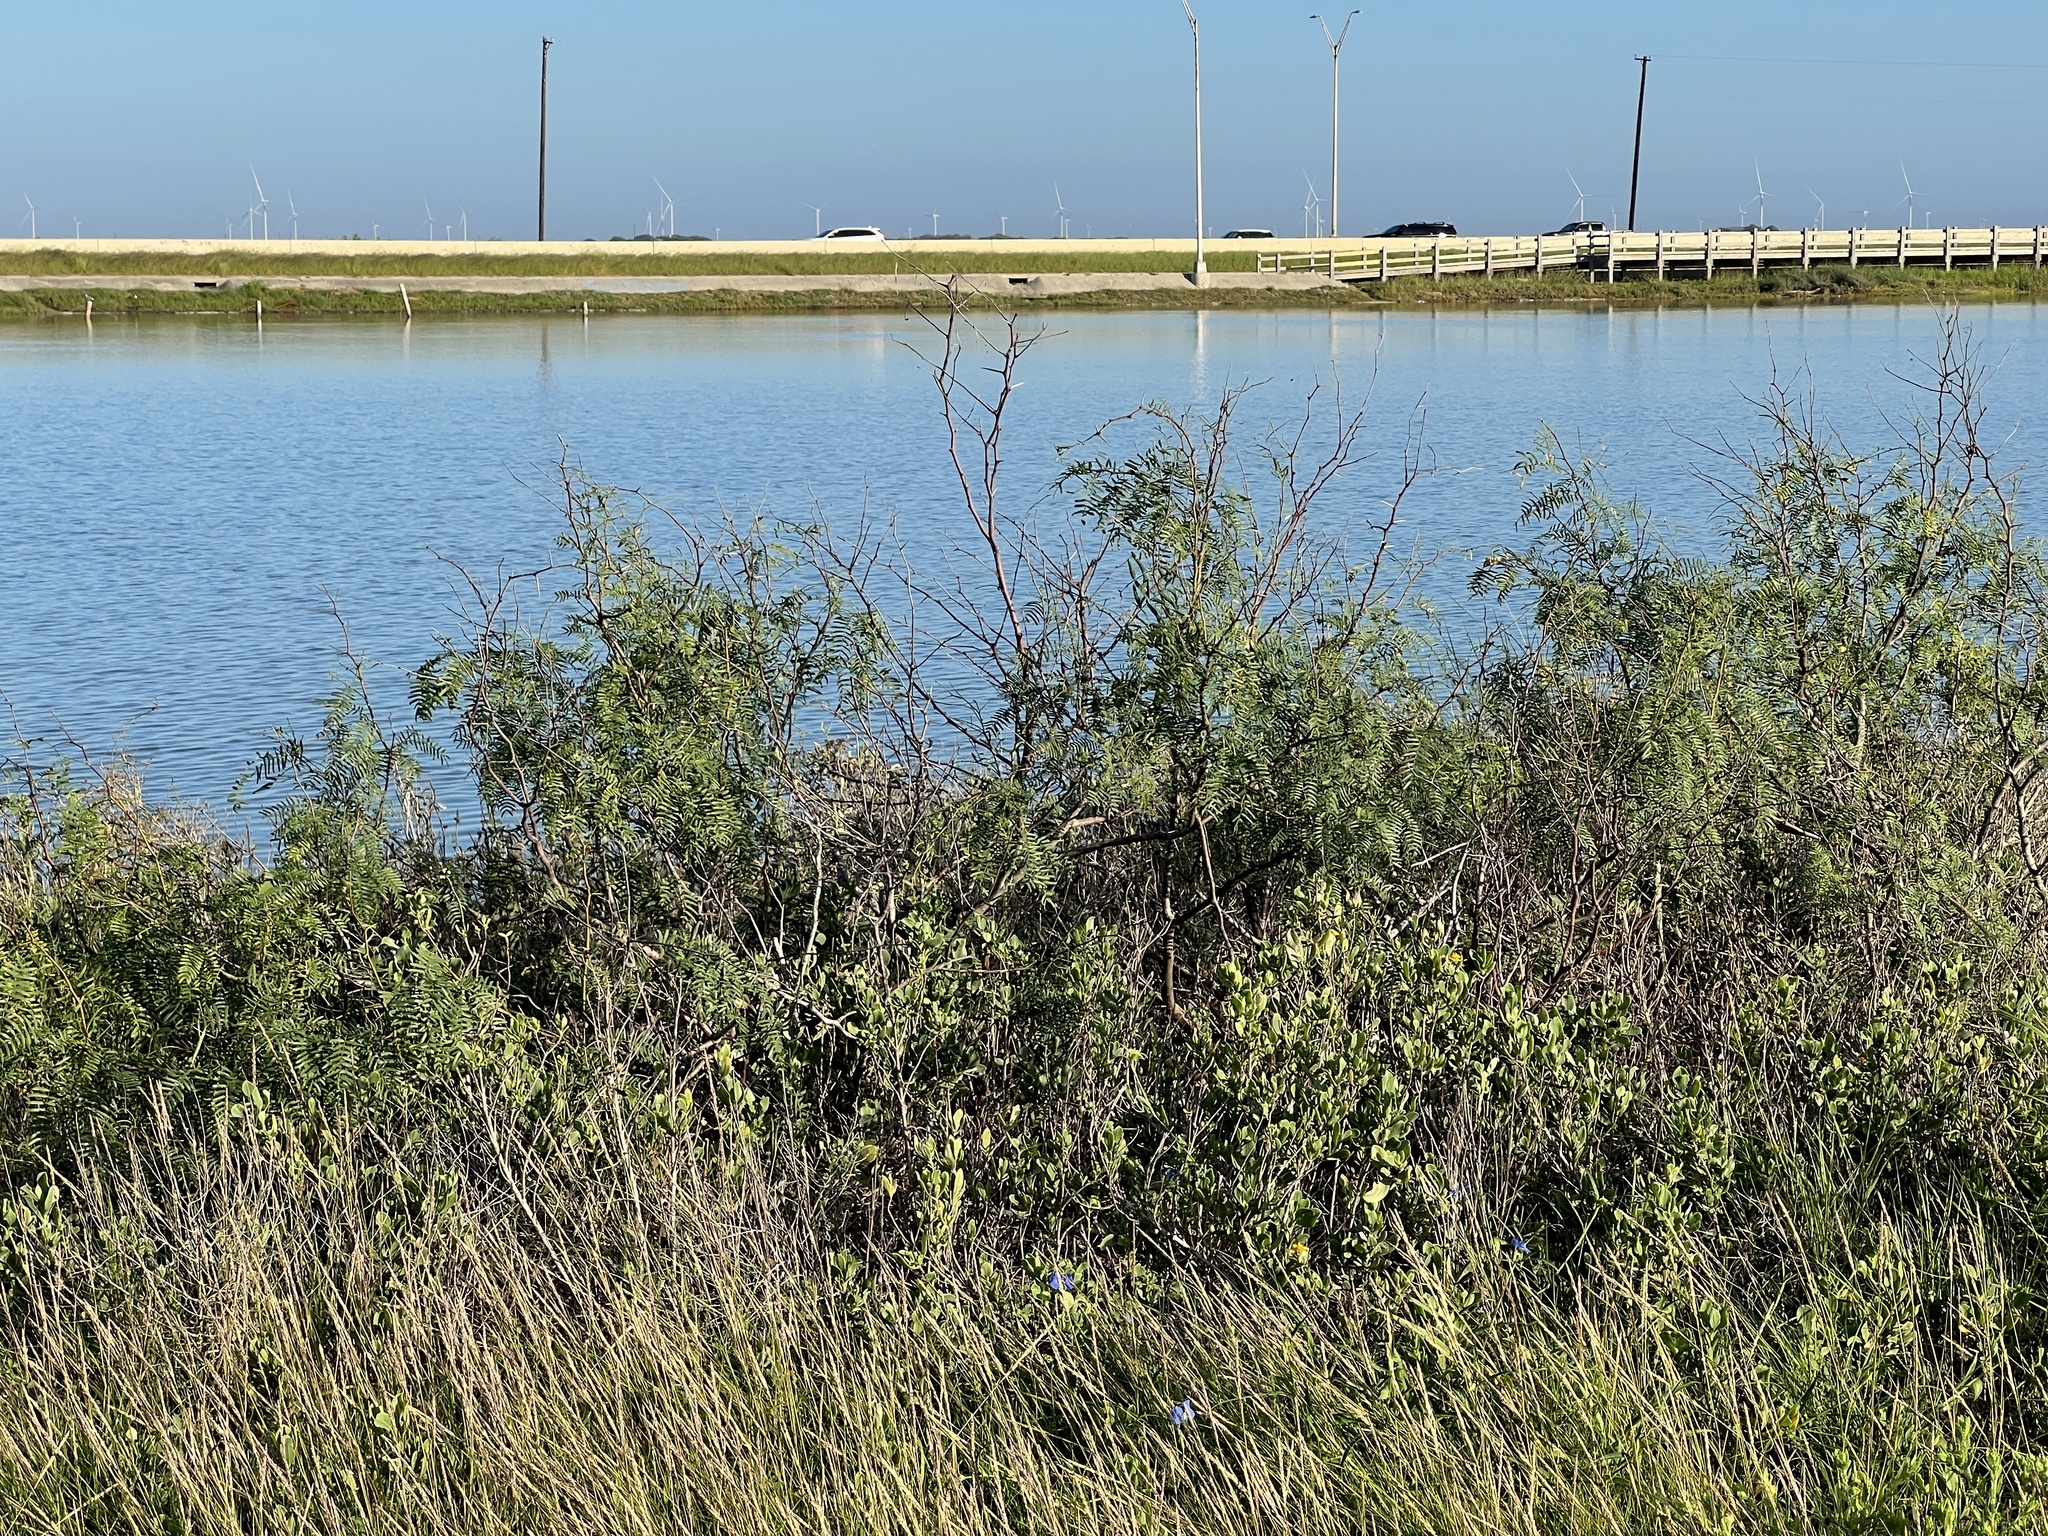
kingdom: Plantae
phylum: Tracheophyta
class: Magnoliopsida
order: Fabales
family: Fabaceae
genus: Prosopis
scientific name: Prosopis glandulosa
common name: Honey mesquite
